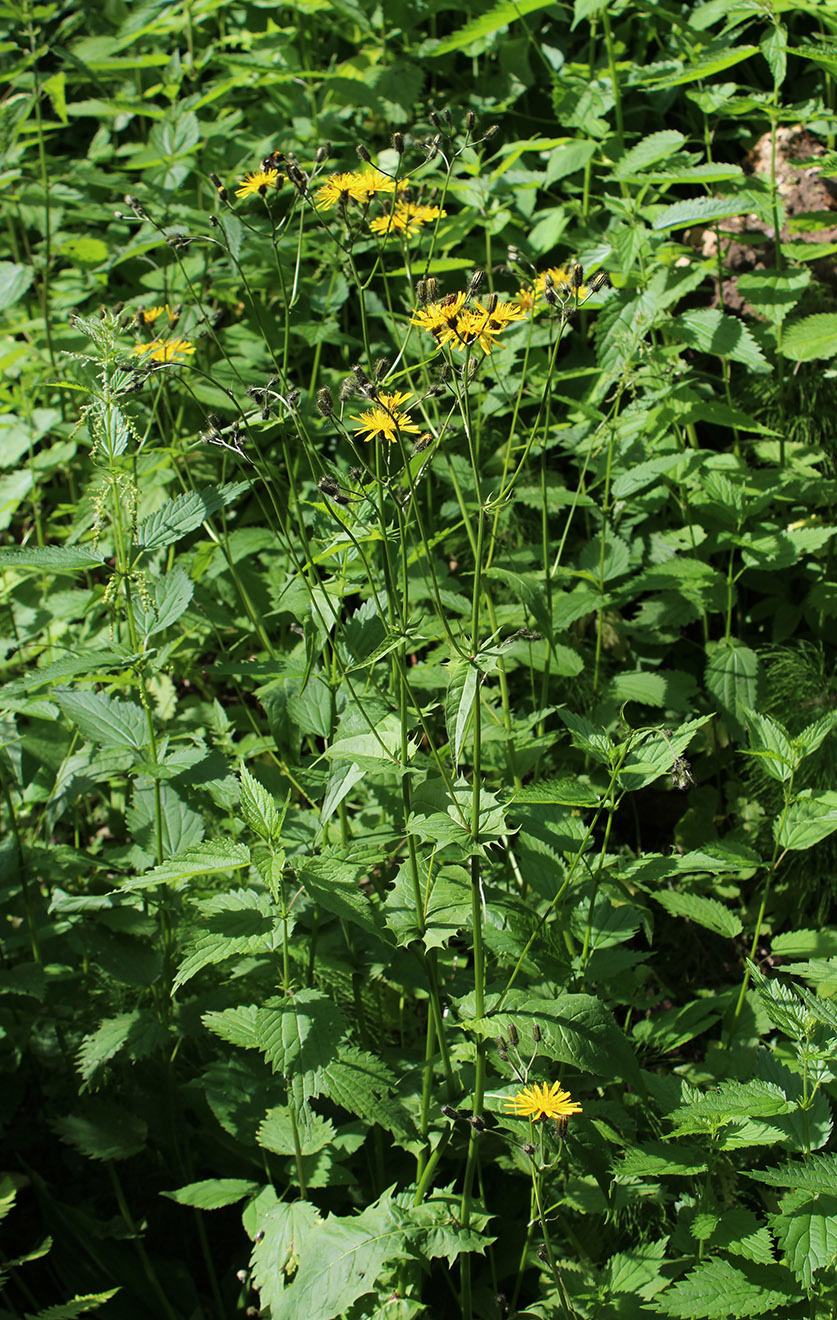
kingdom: Plantae
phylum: Tracheophyta
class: Magnoliopsida
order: Asterales
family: Asteraceae
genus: Crepis
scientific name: Crepis paludosa
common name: Marsh hawk's-beard
